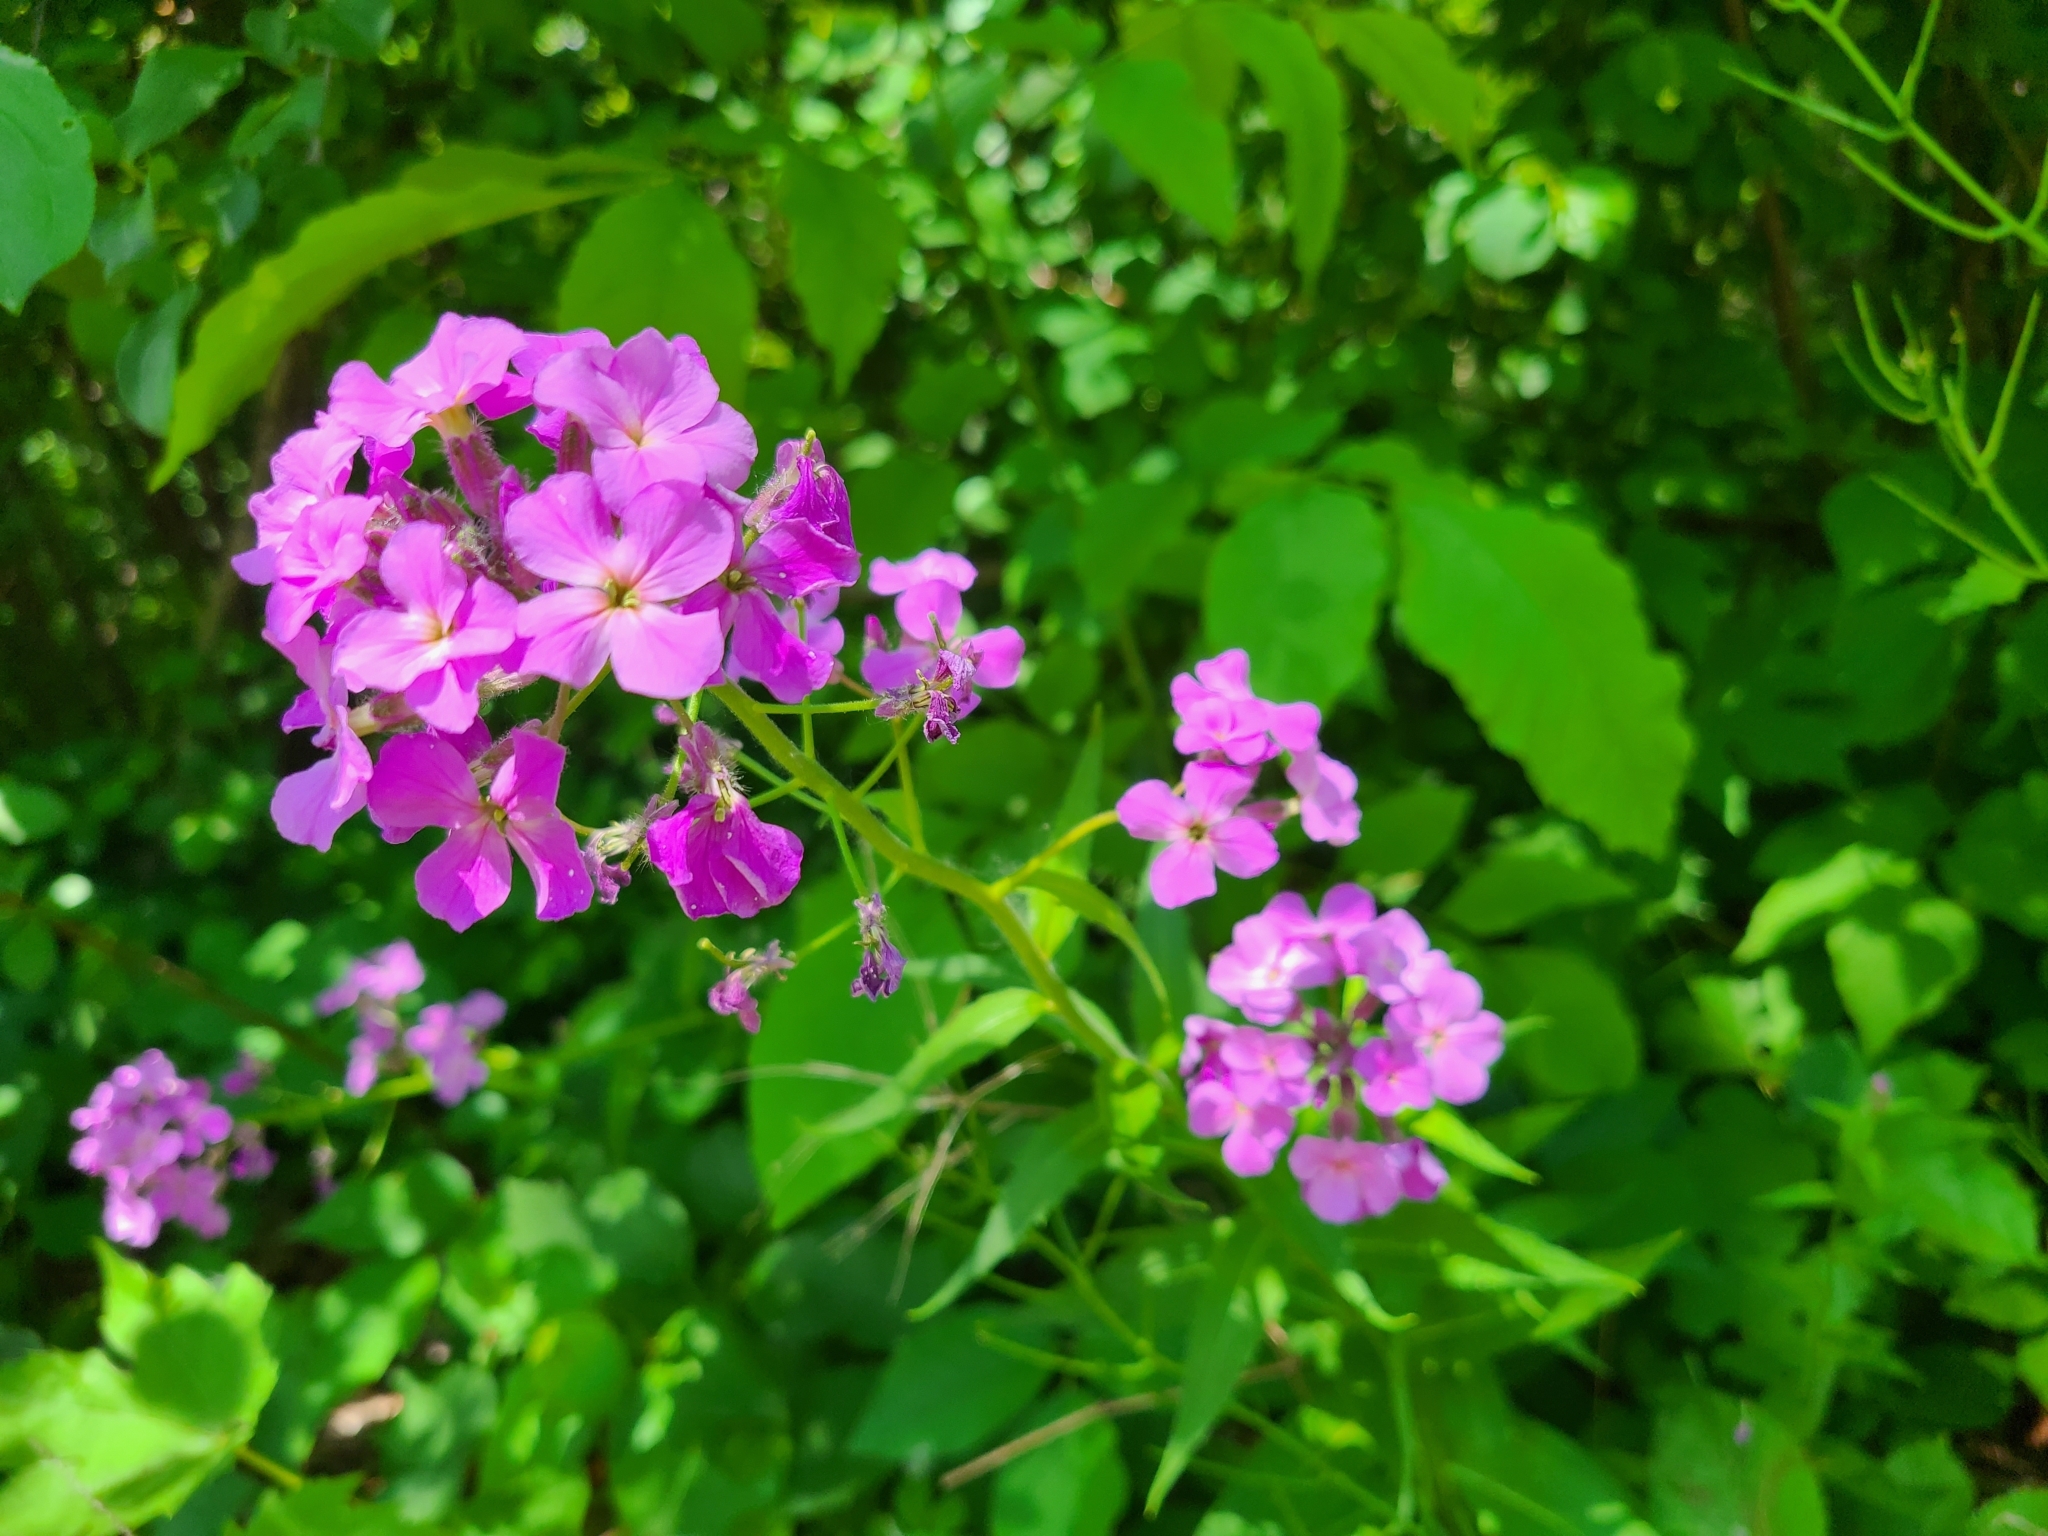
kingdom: Plantae
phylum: Tracheophyta
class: Magnoliopsida
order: Brassicales
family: Brassicaceae
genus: Hesperis
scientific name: Hesperis matronalis
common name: Dame's-violet
